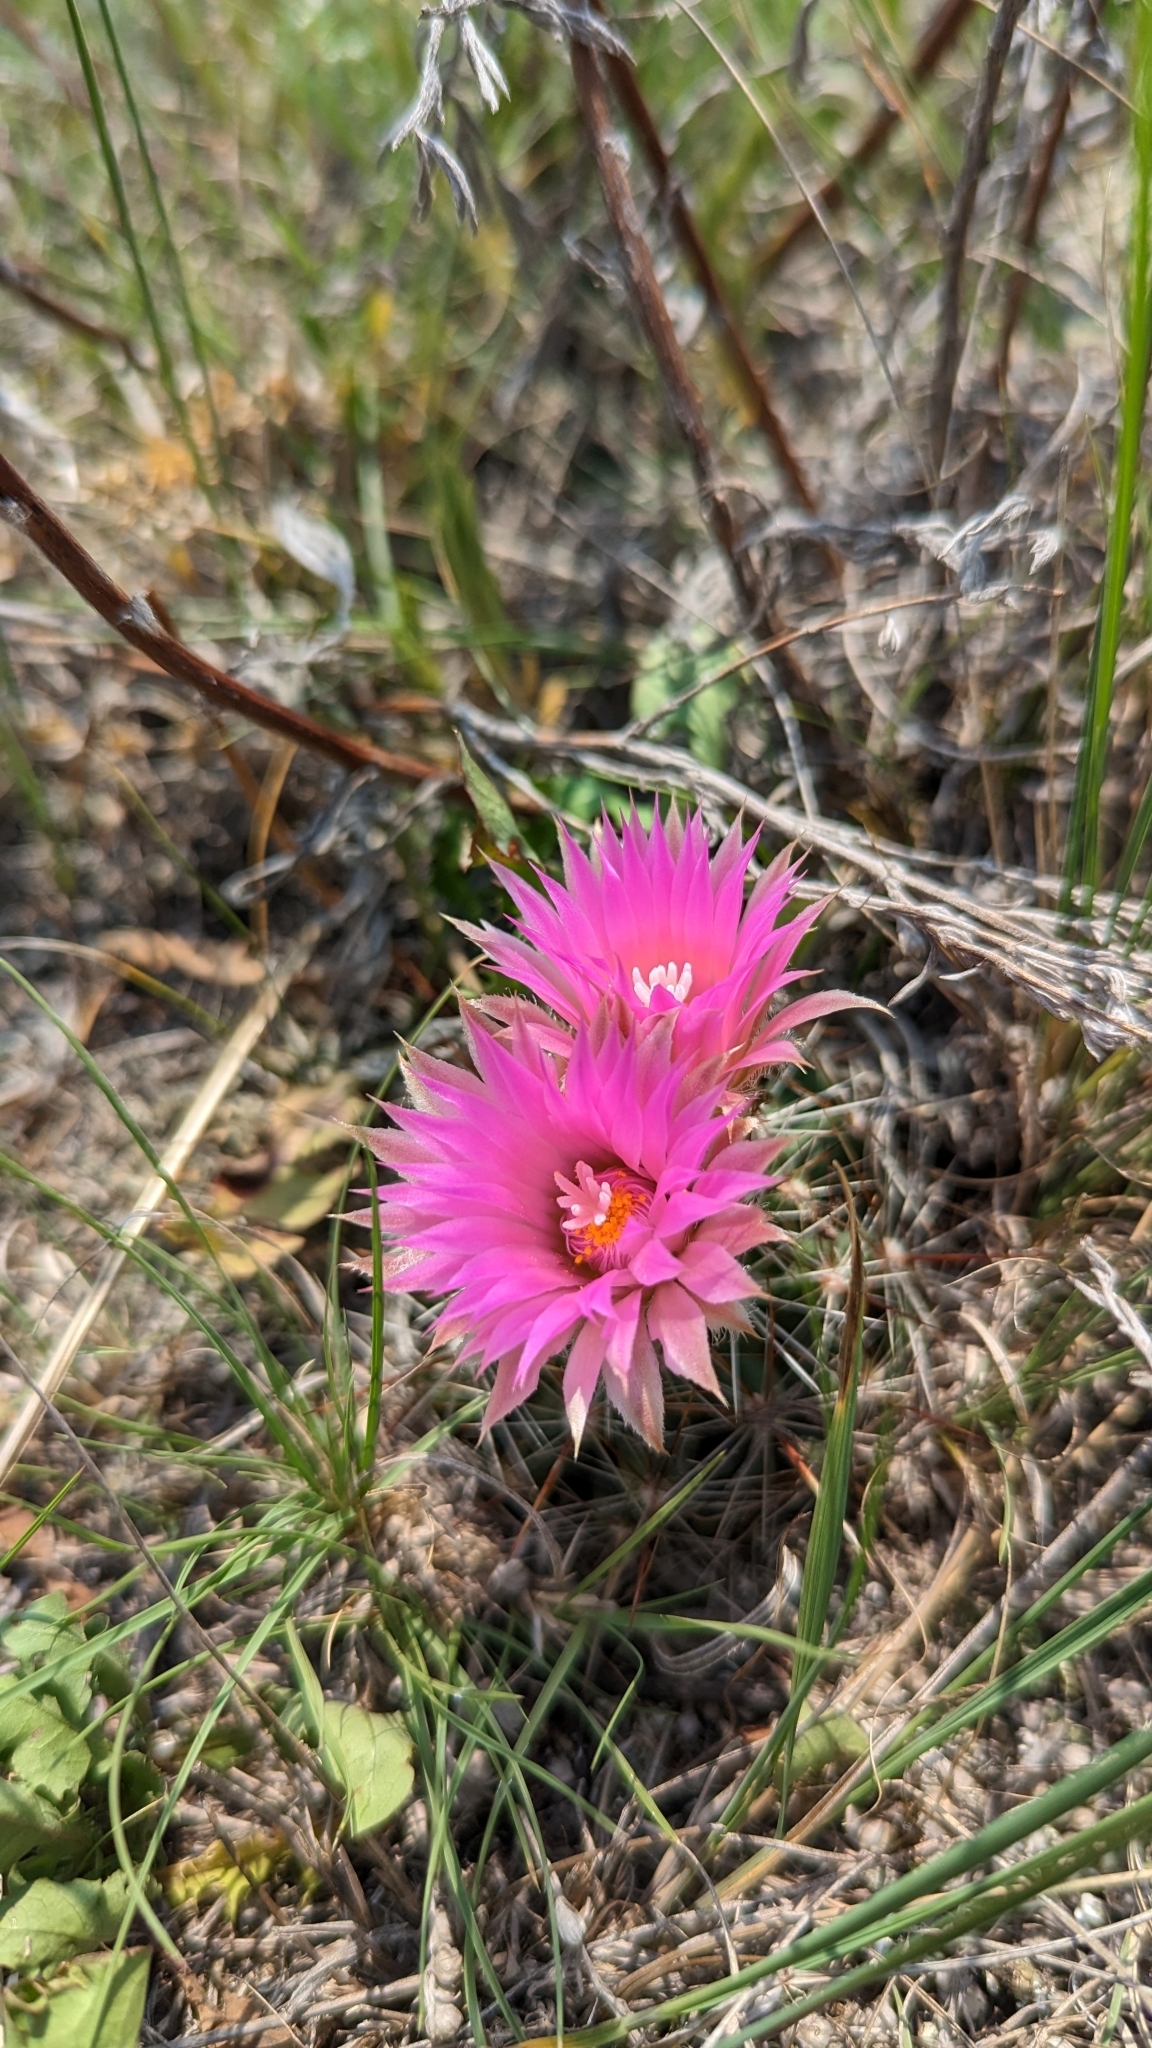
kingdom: Plantae
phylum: Tracheophyta
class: Magnoliopsida
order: Caryophyllales
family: Cactaceae
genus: Pelecyphora
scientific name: Pelecyphora vivipara
